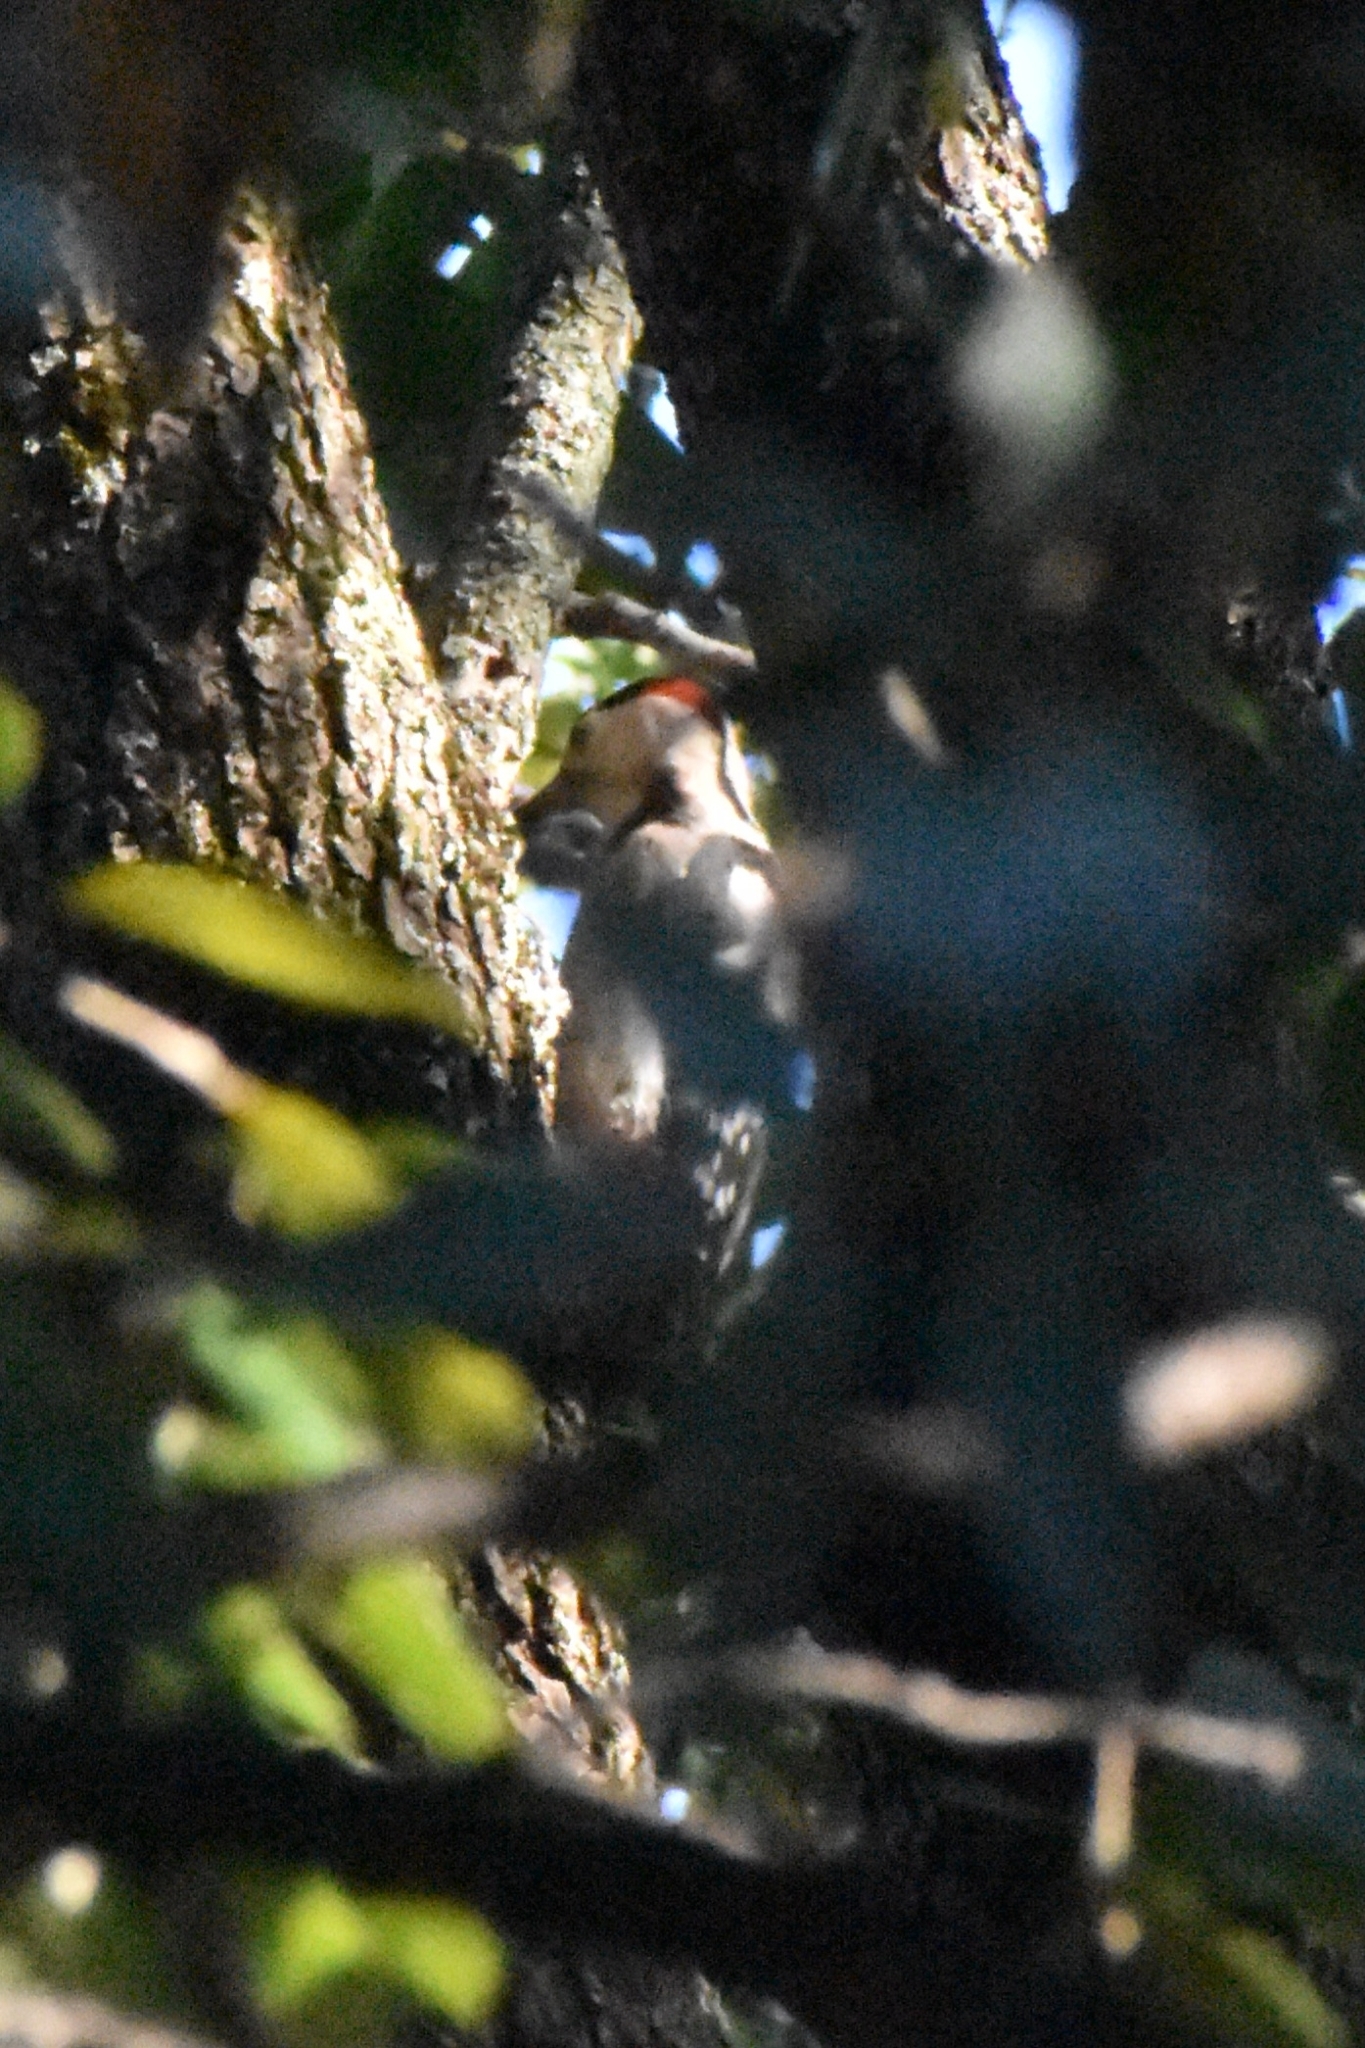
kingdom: Animalia
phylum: Chordata
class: Aves
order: Piciformes
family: Picidae
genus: Dendrocopos
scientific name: Dendrocopos syriacus
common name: Syrian woodpecker
